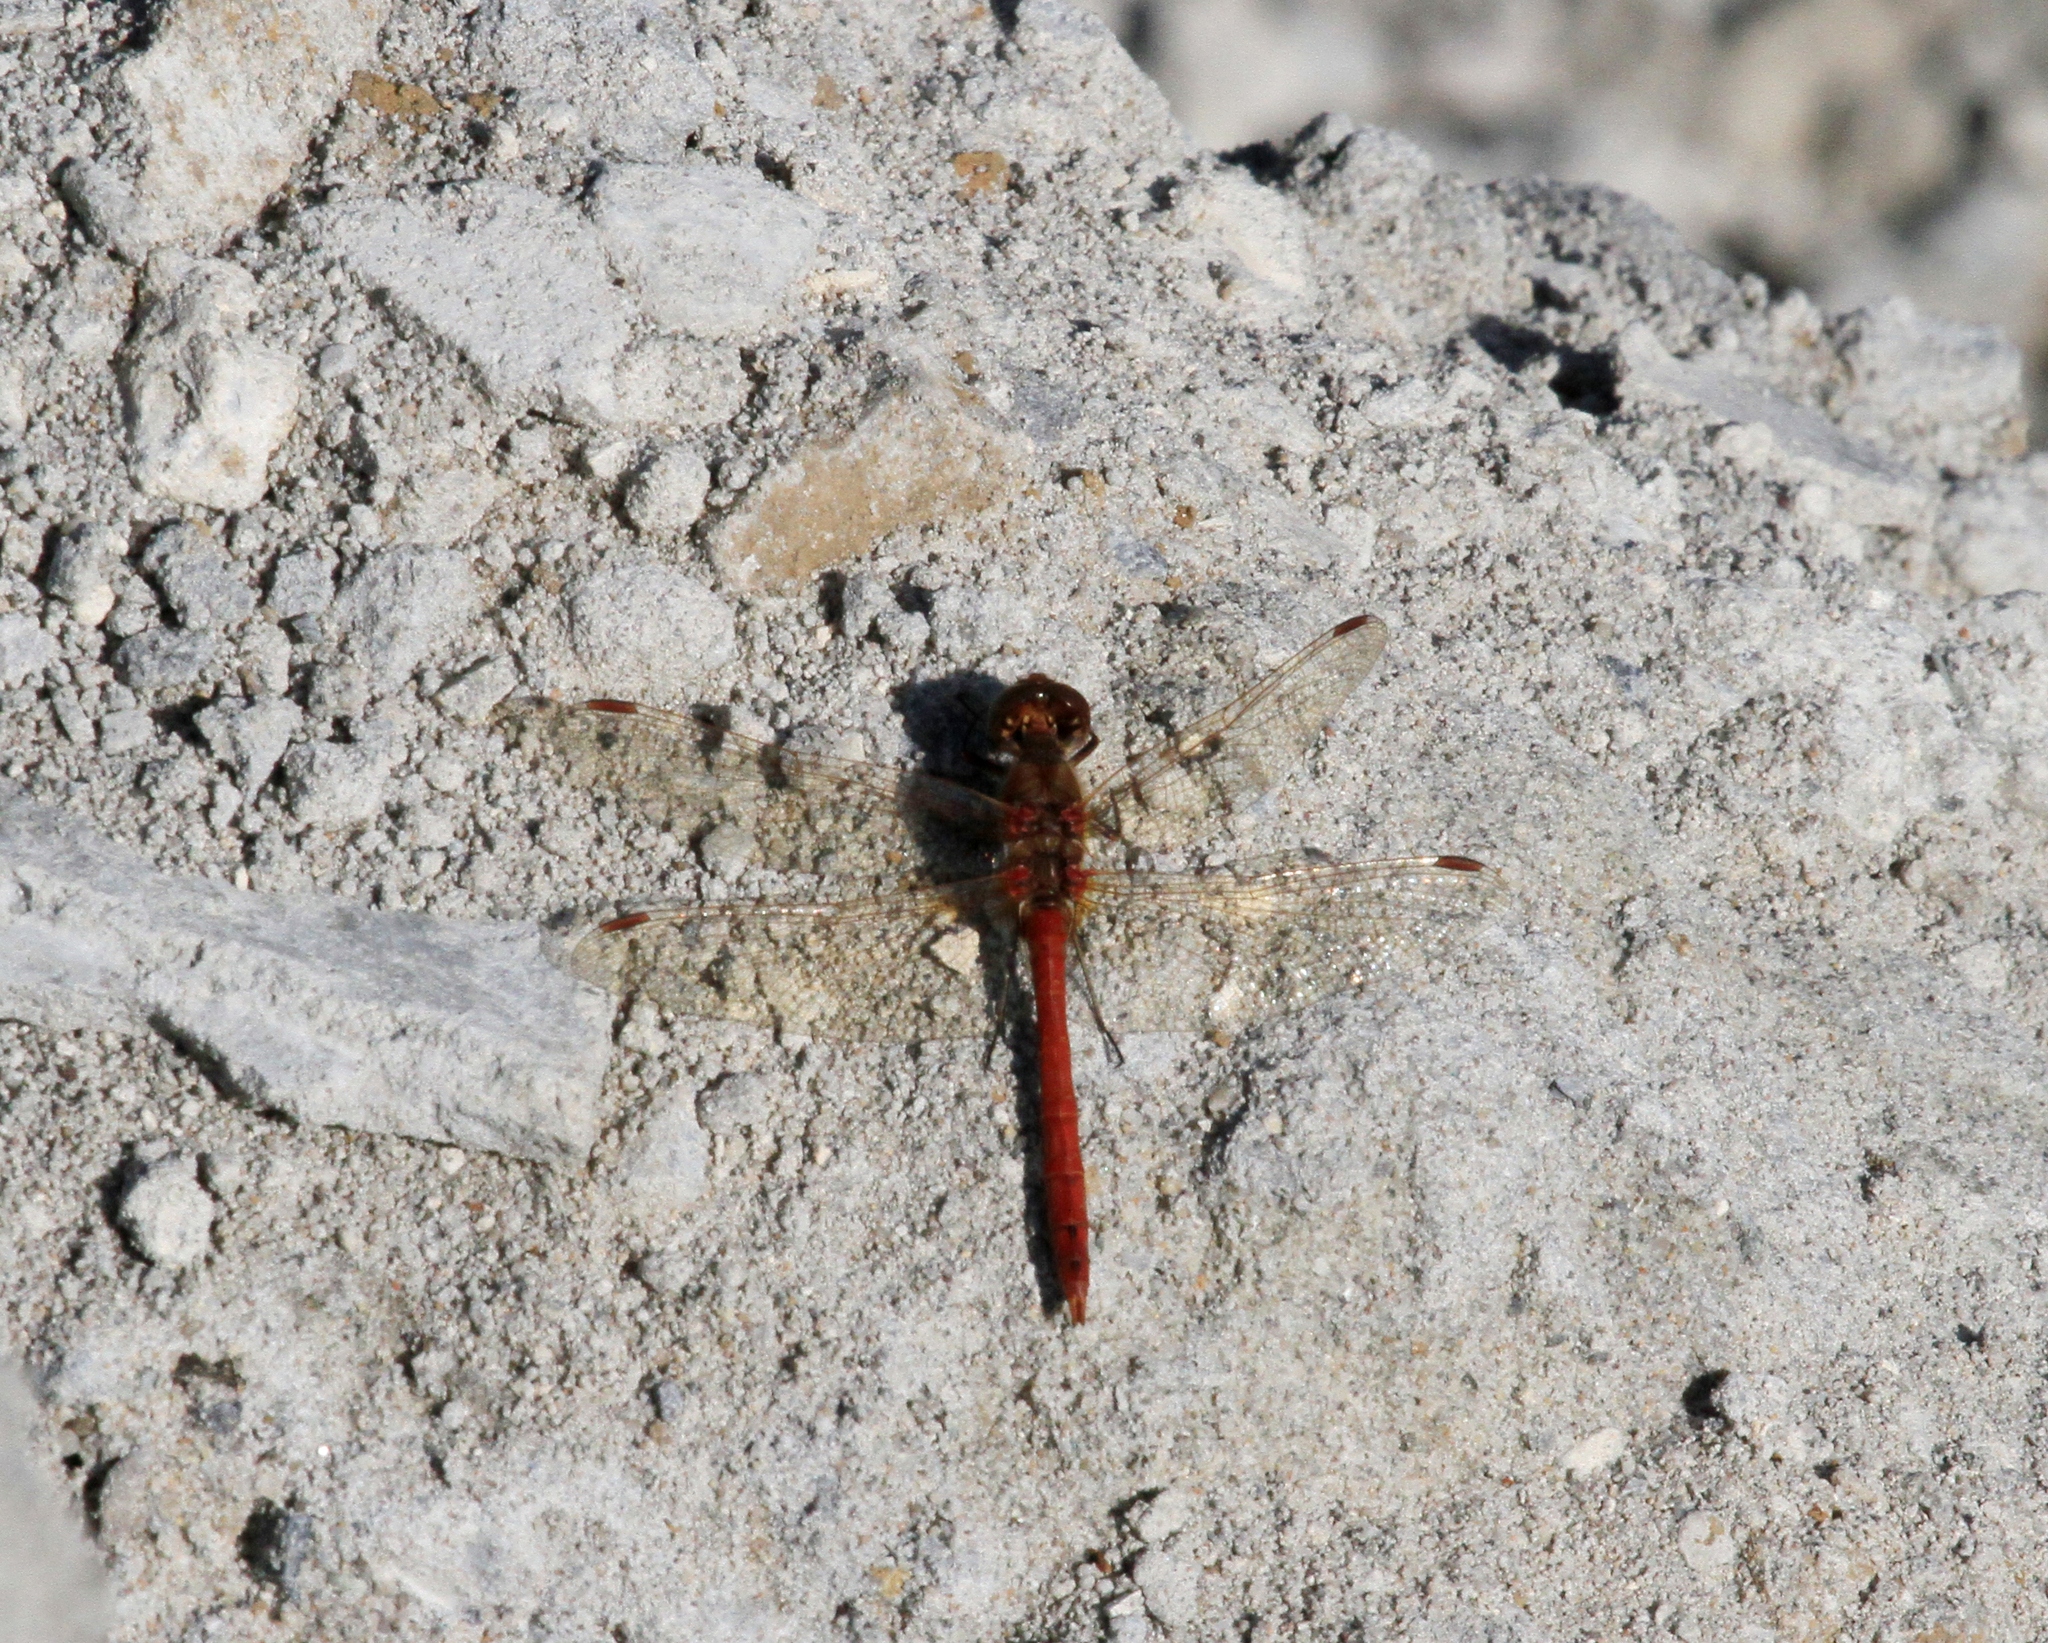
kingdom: Animalia
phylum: Arthropoda
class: Insecta
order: Odonata
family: Libellulidae
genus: Sympetrum
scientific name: Sympetrum vulgatum
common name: Vagrant darter
